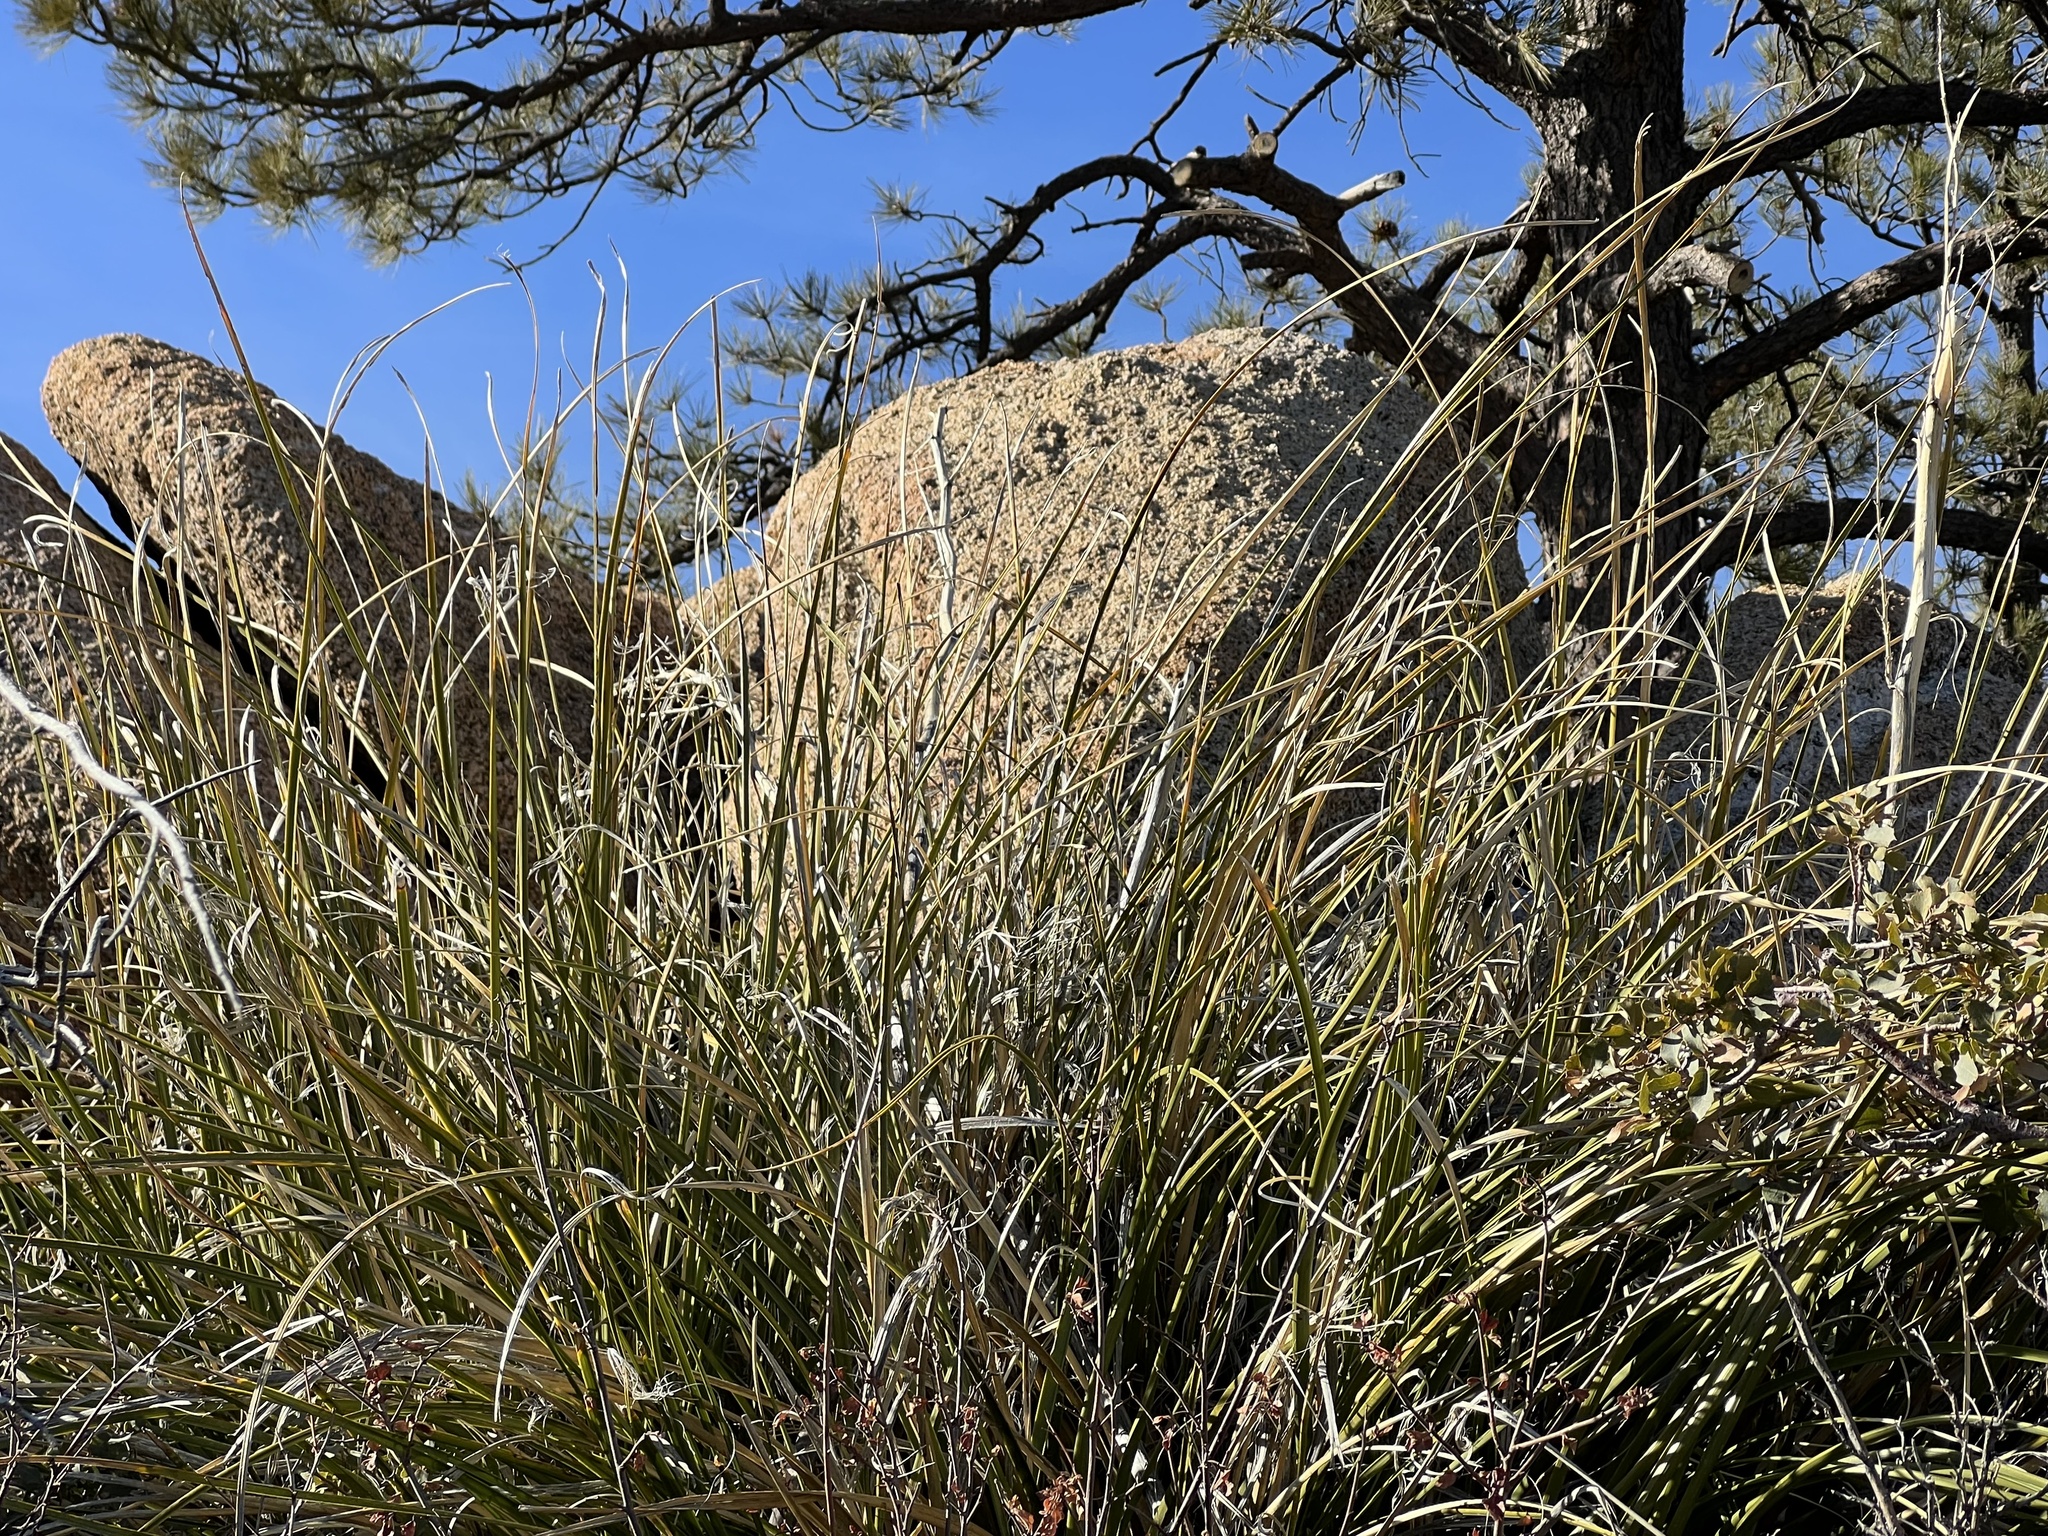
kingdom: Plantae
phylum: Tracheophyta
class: Liliopsida
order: Asparagales
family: Asparagaceae
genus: Nolina
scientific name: Nolina microcarpa
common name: Bear-grass
